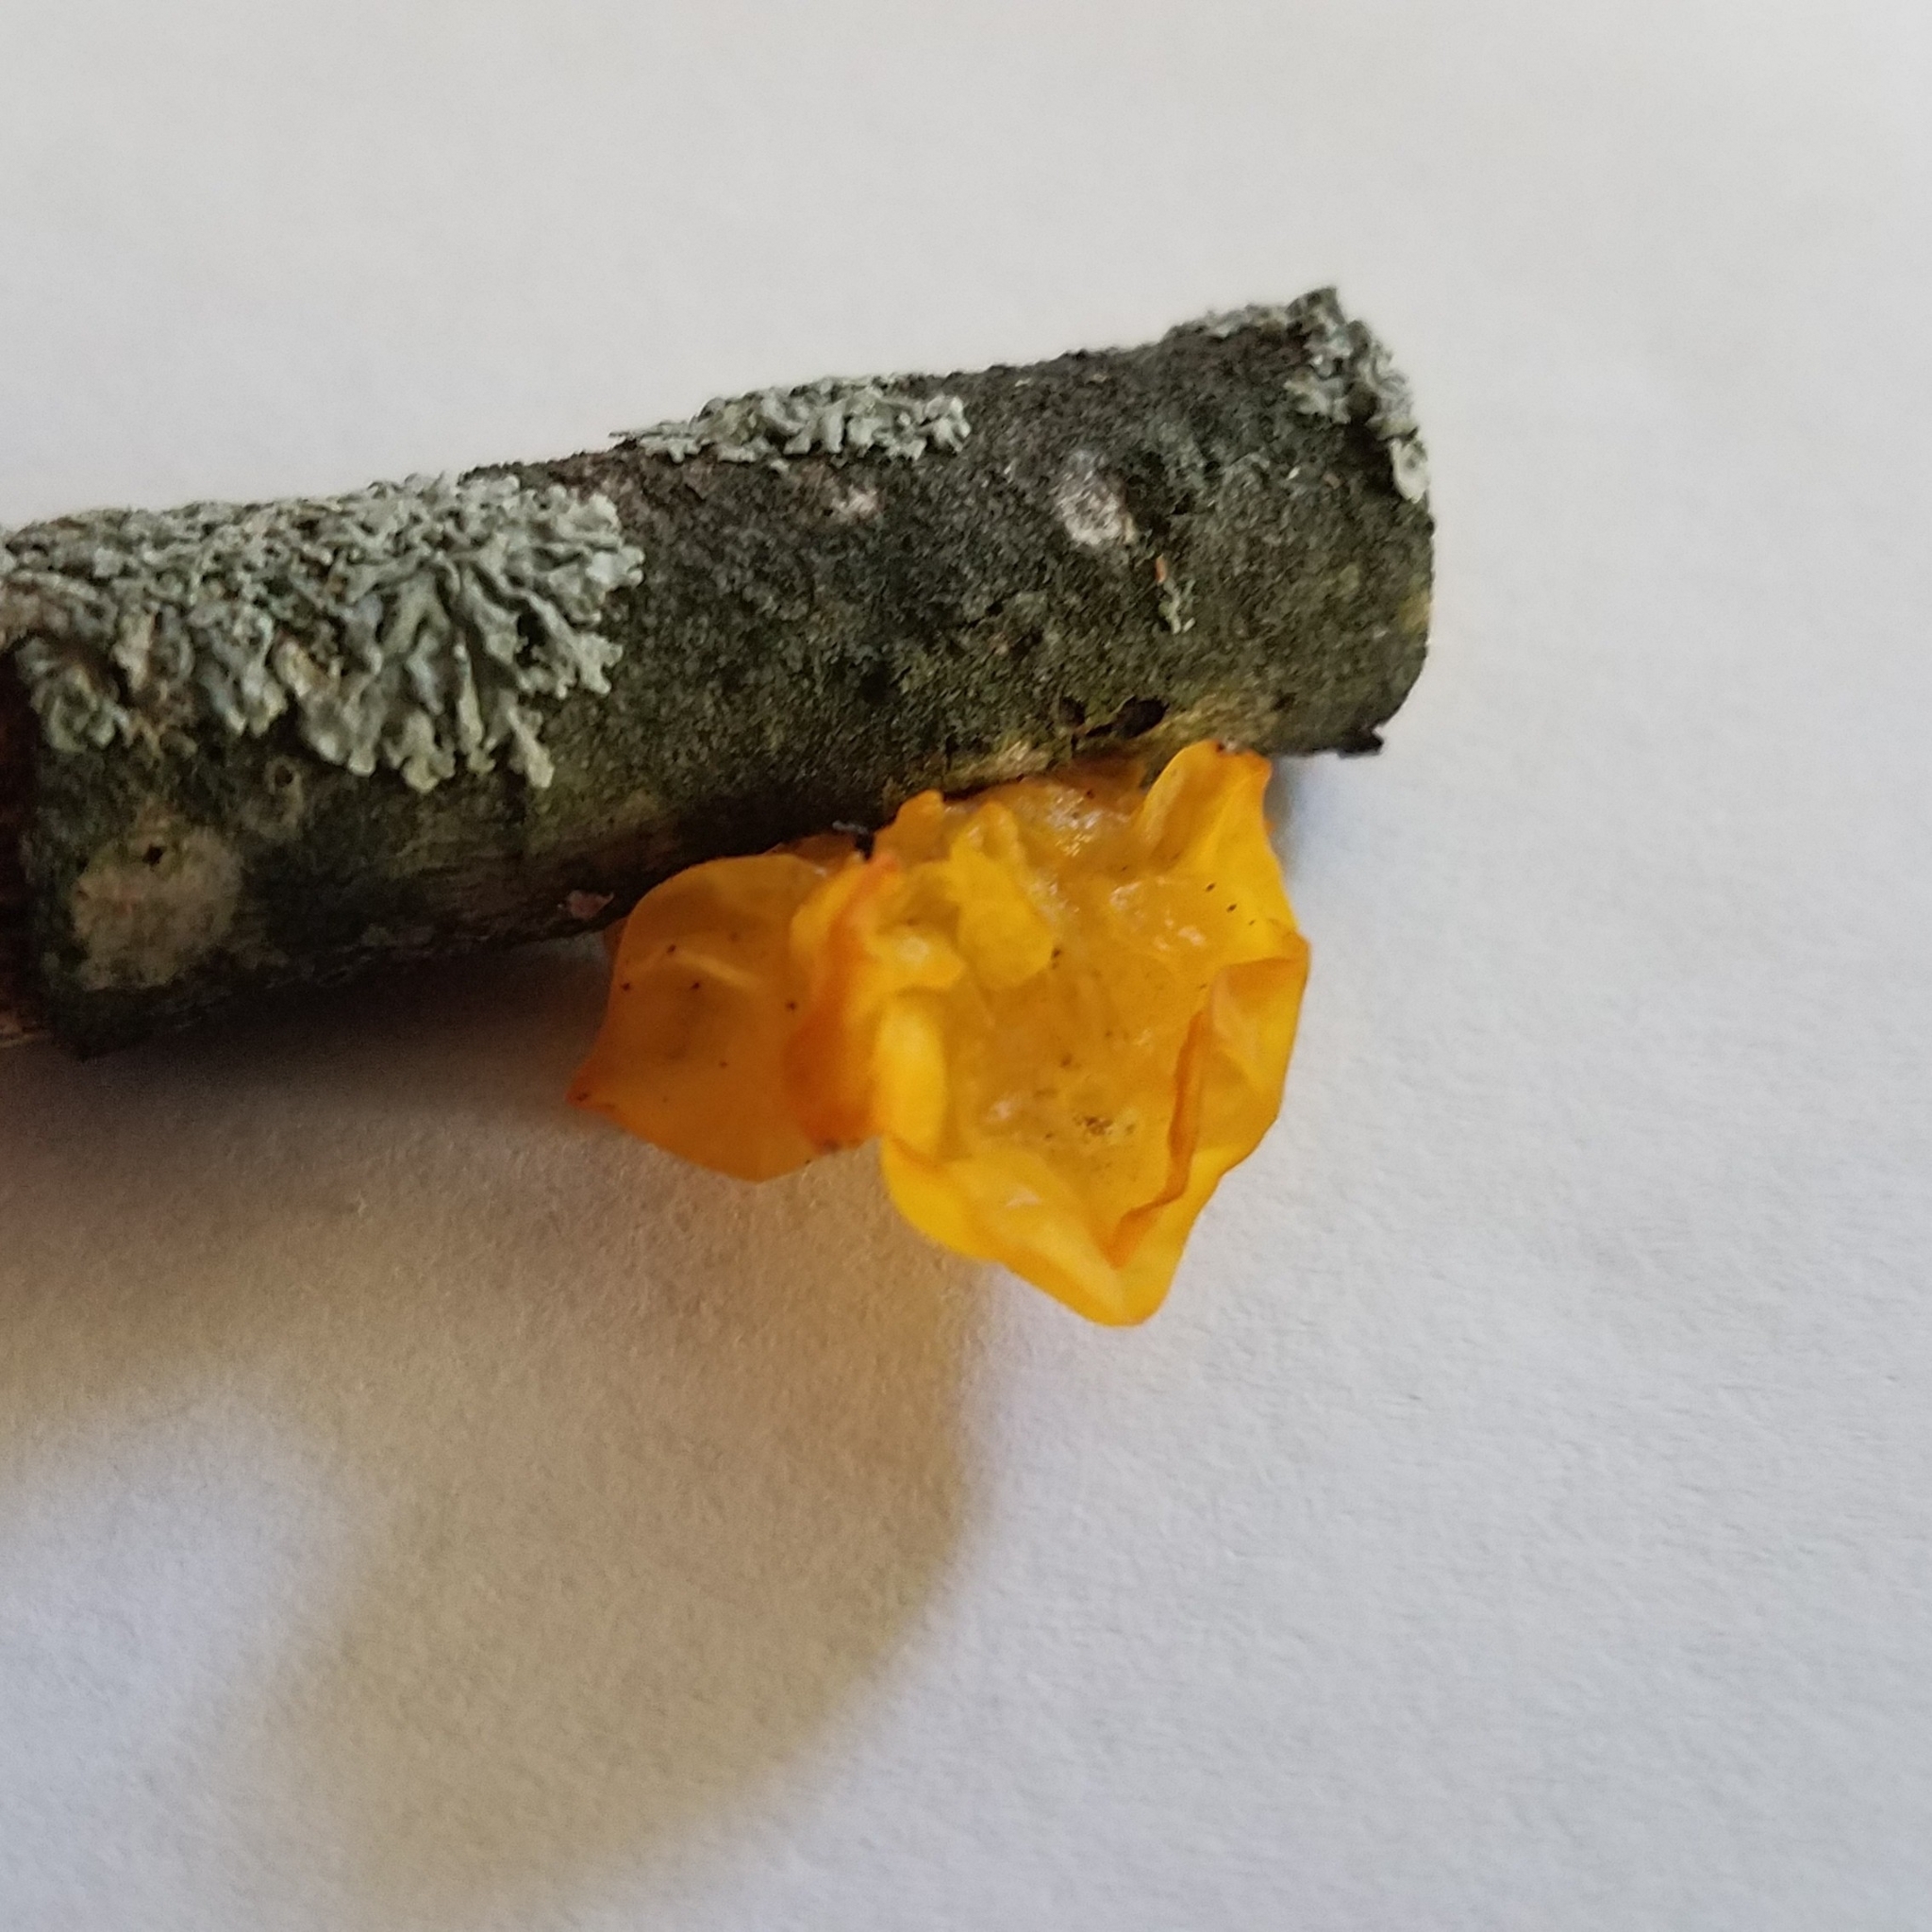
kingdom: Fungi
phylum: Basidiomycota
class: Tremellomycetes
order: Tremellales
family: Tremellaceae
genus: Tremella
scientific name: Tremella mesenterica
